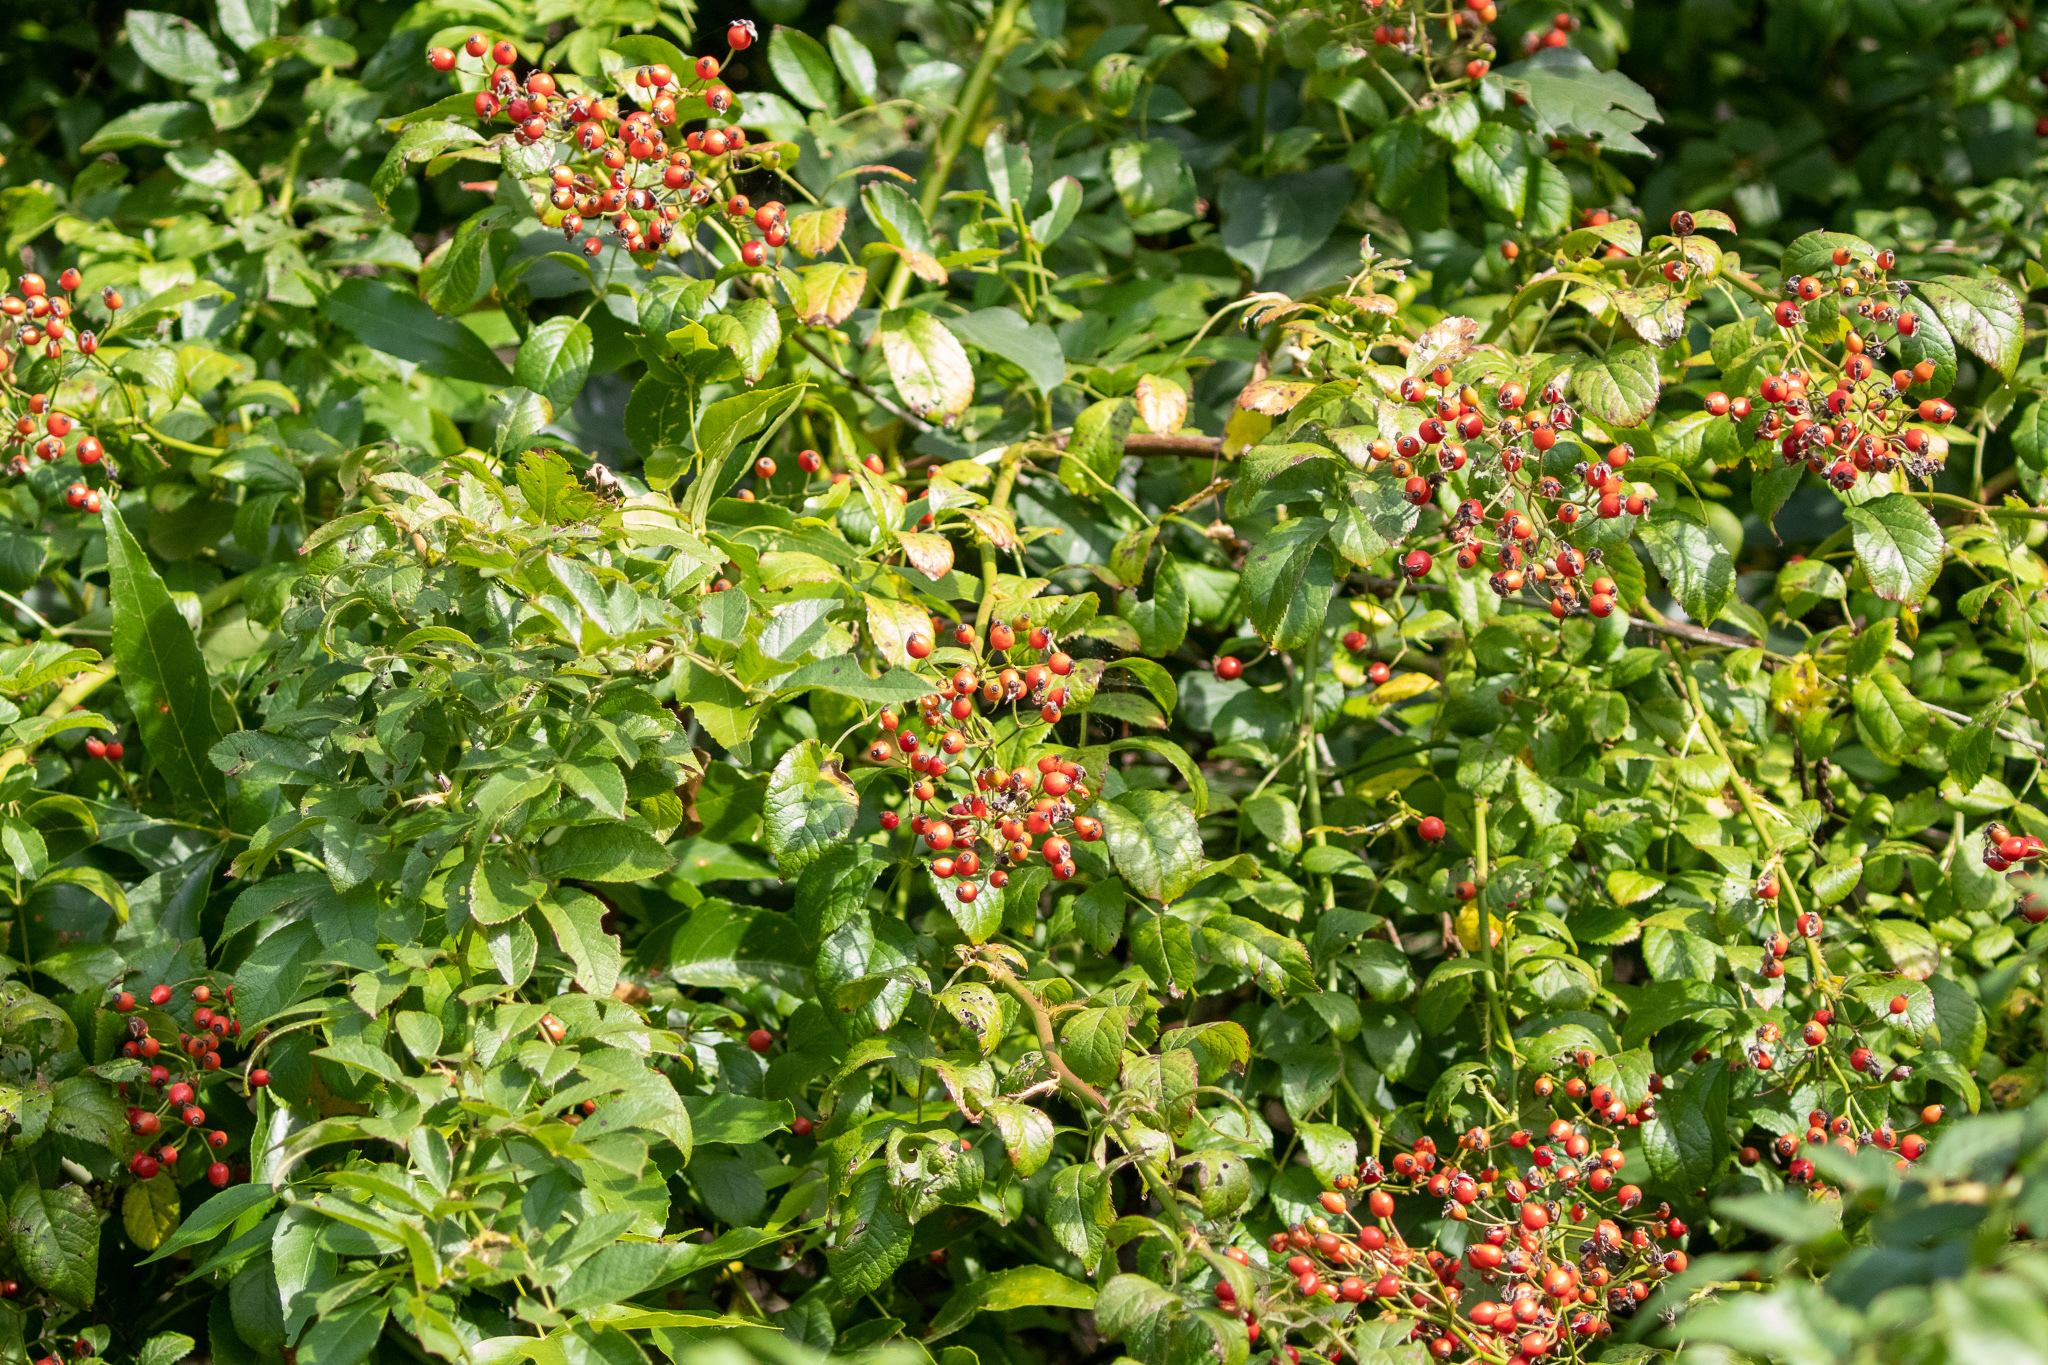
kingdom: Plantae
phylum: Tracheophyta
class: Magnoliopsida
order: Rosales
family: Rosaceae
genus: Rosa
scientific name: Rosa multiflora
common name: Multiflora rose
